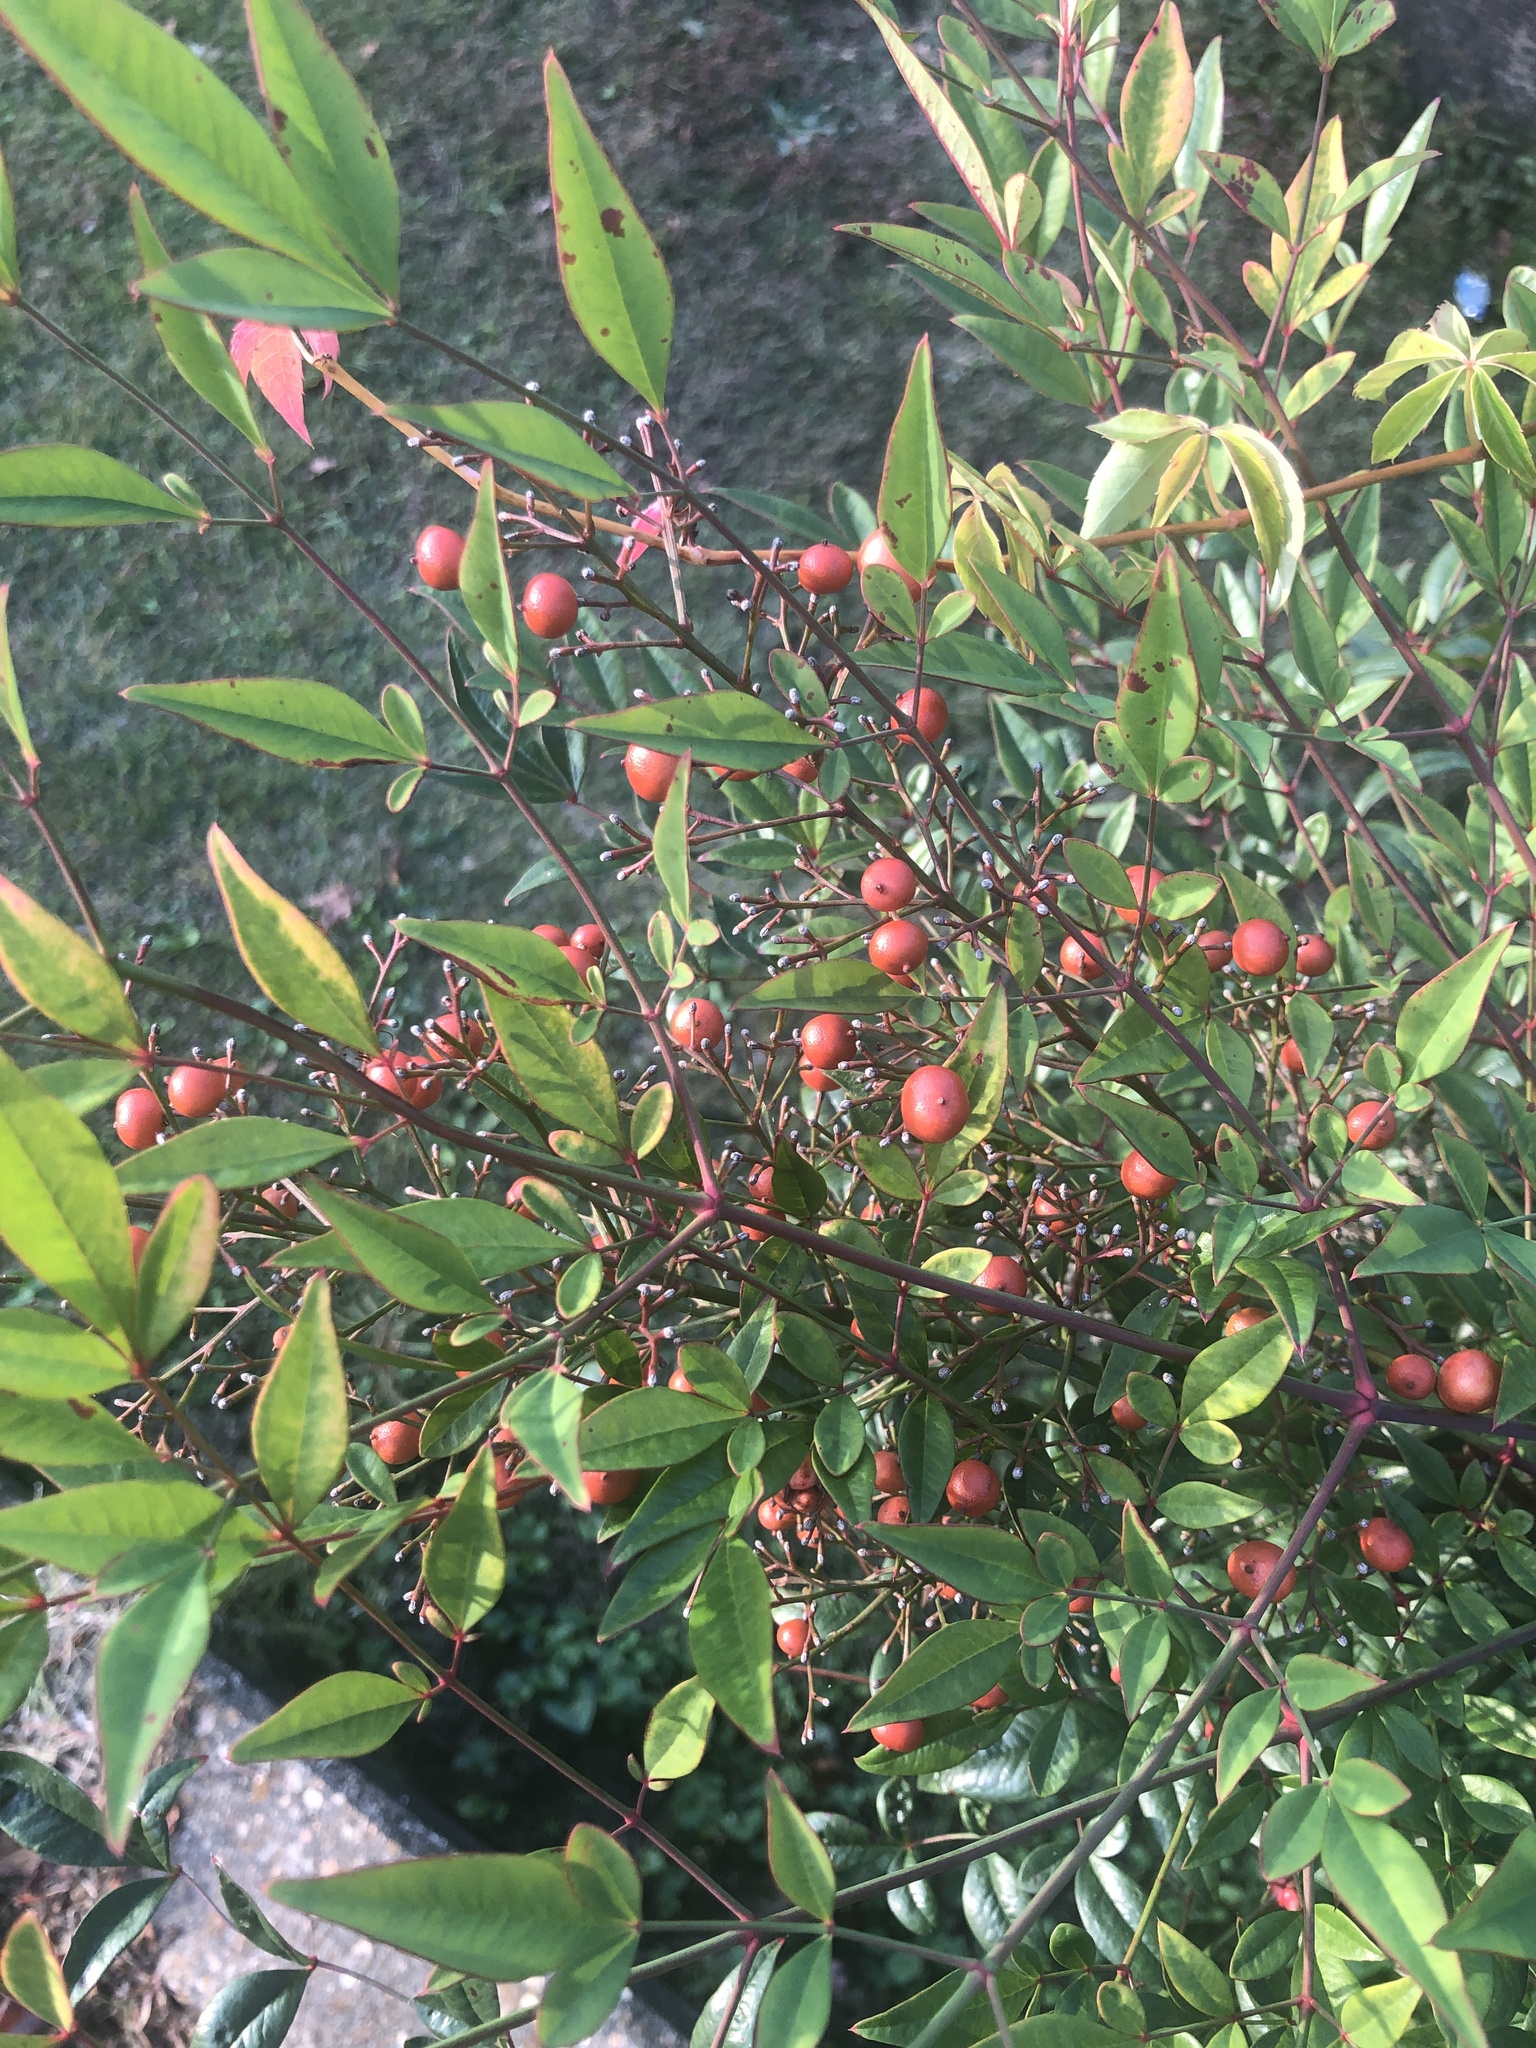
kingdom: Plantae
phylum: Tracheophyta
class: Magnoliopsida
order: Ranunculales
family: Berberidaceae
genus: Nandina
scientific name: Nandina domestica
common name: Sacred bamboo
